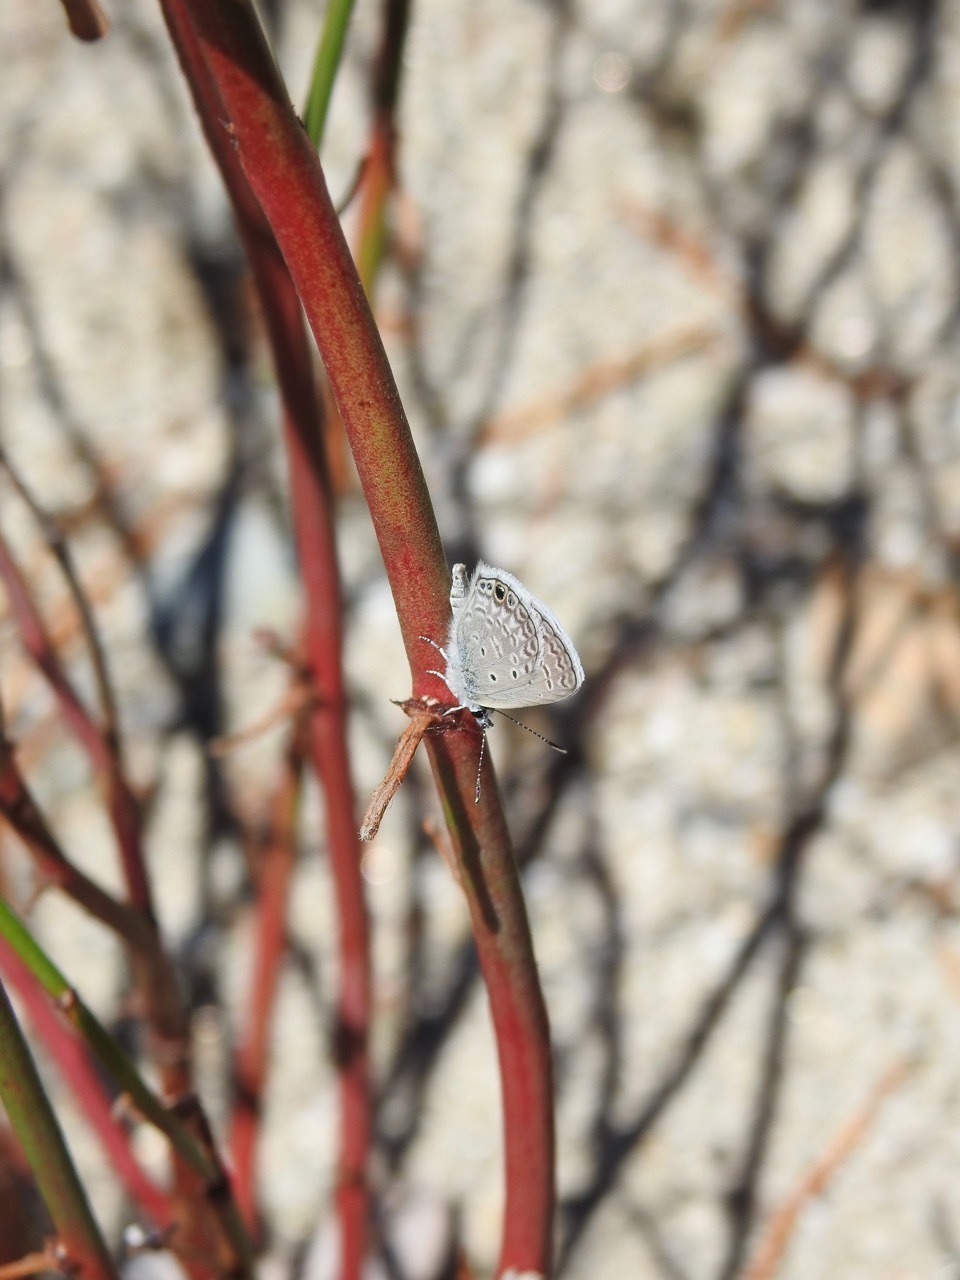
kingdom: Animalia
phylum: Arthropoda
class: Insecta
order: Lepidoptera
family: Lycaenidae
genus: Hemiargus
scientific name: Hemiargus ceraunus
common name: Ceraunus blue
